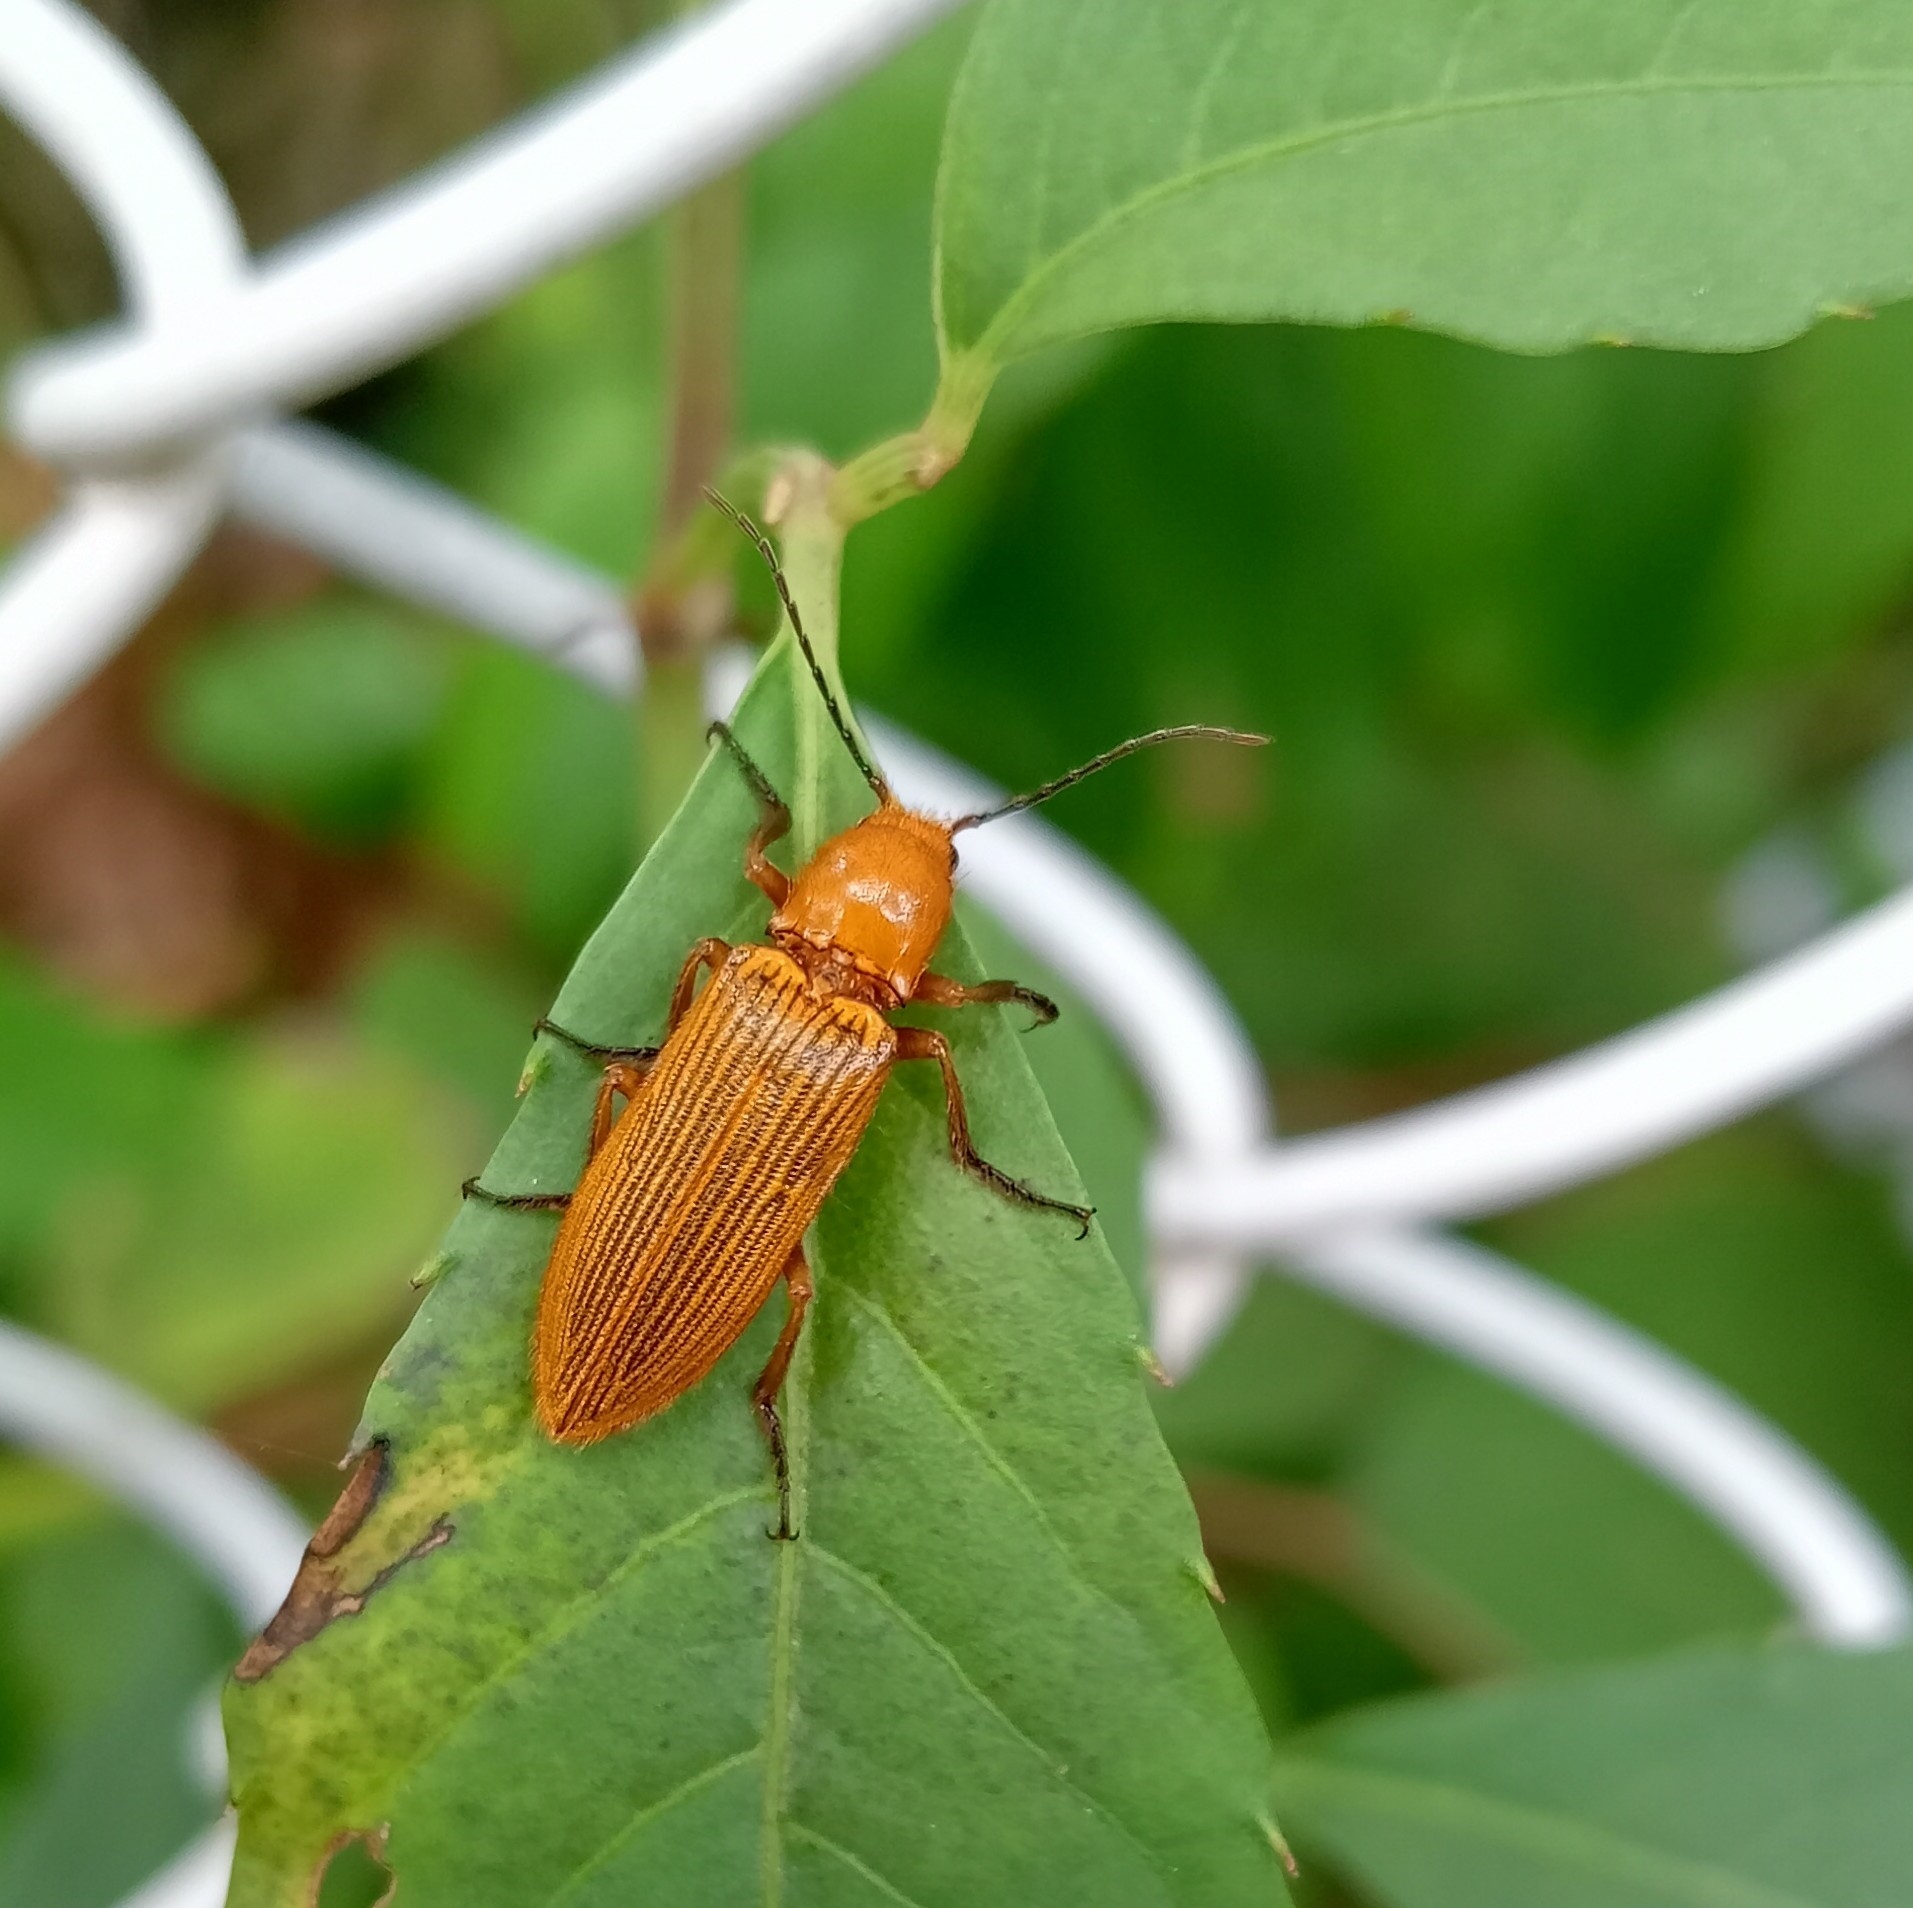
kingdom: Animalia
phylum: Arthropoda
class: Insecta
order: Coleoptera
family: Elateridae
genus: Hemiops
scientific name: Hemiops flava
